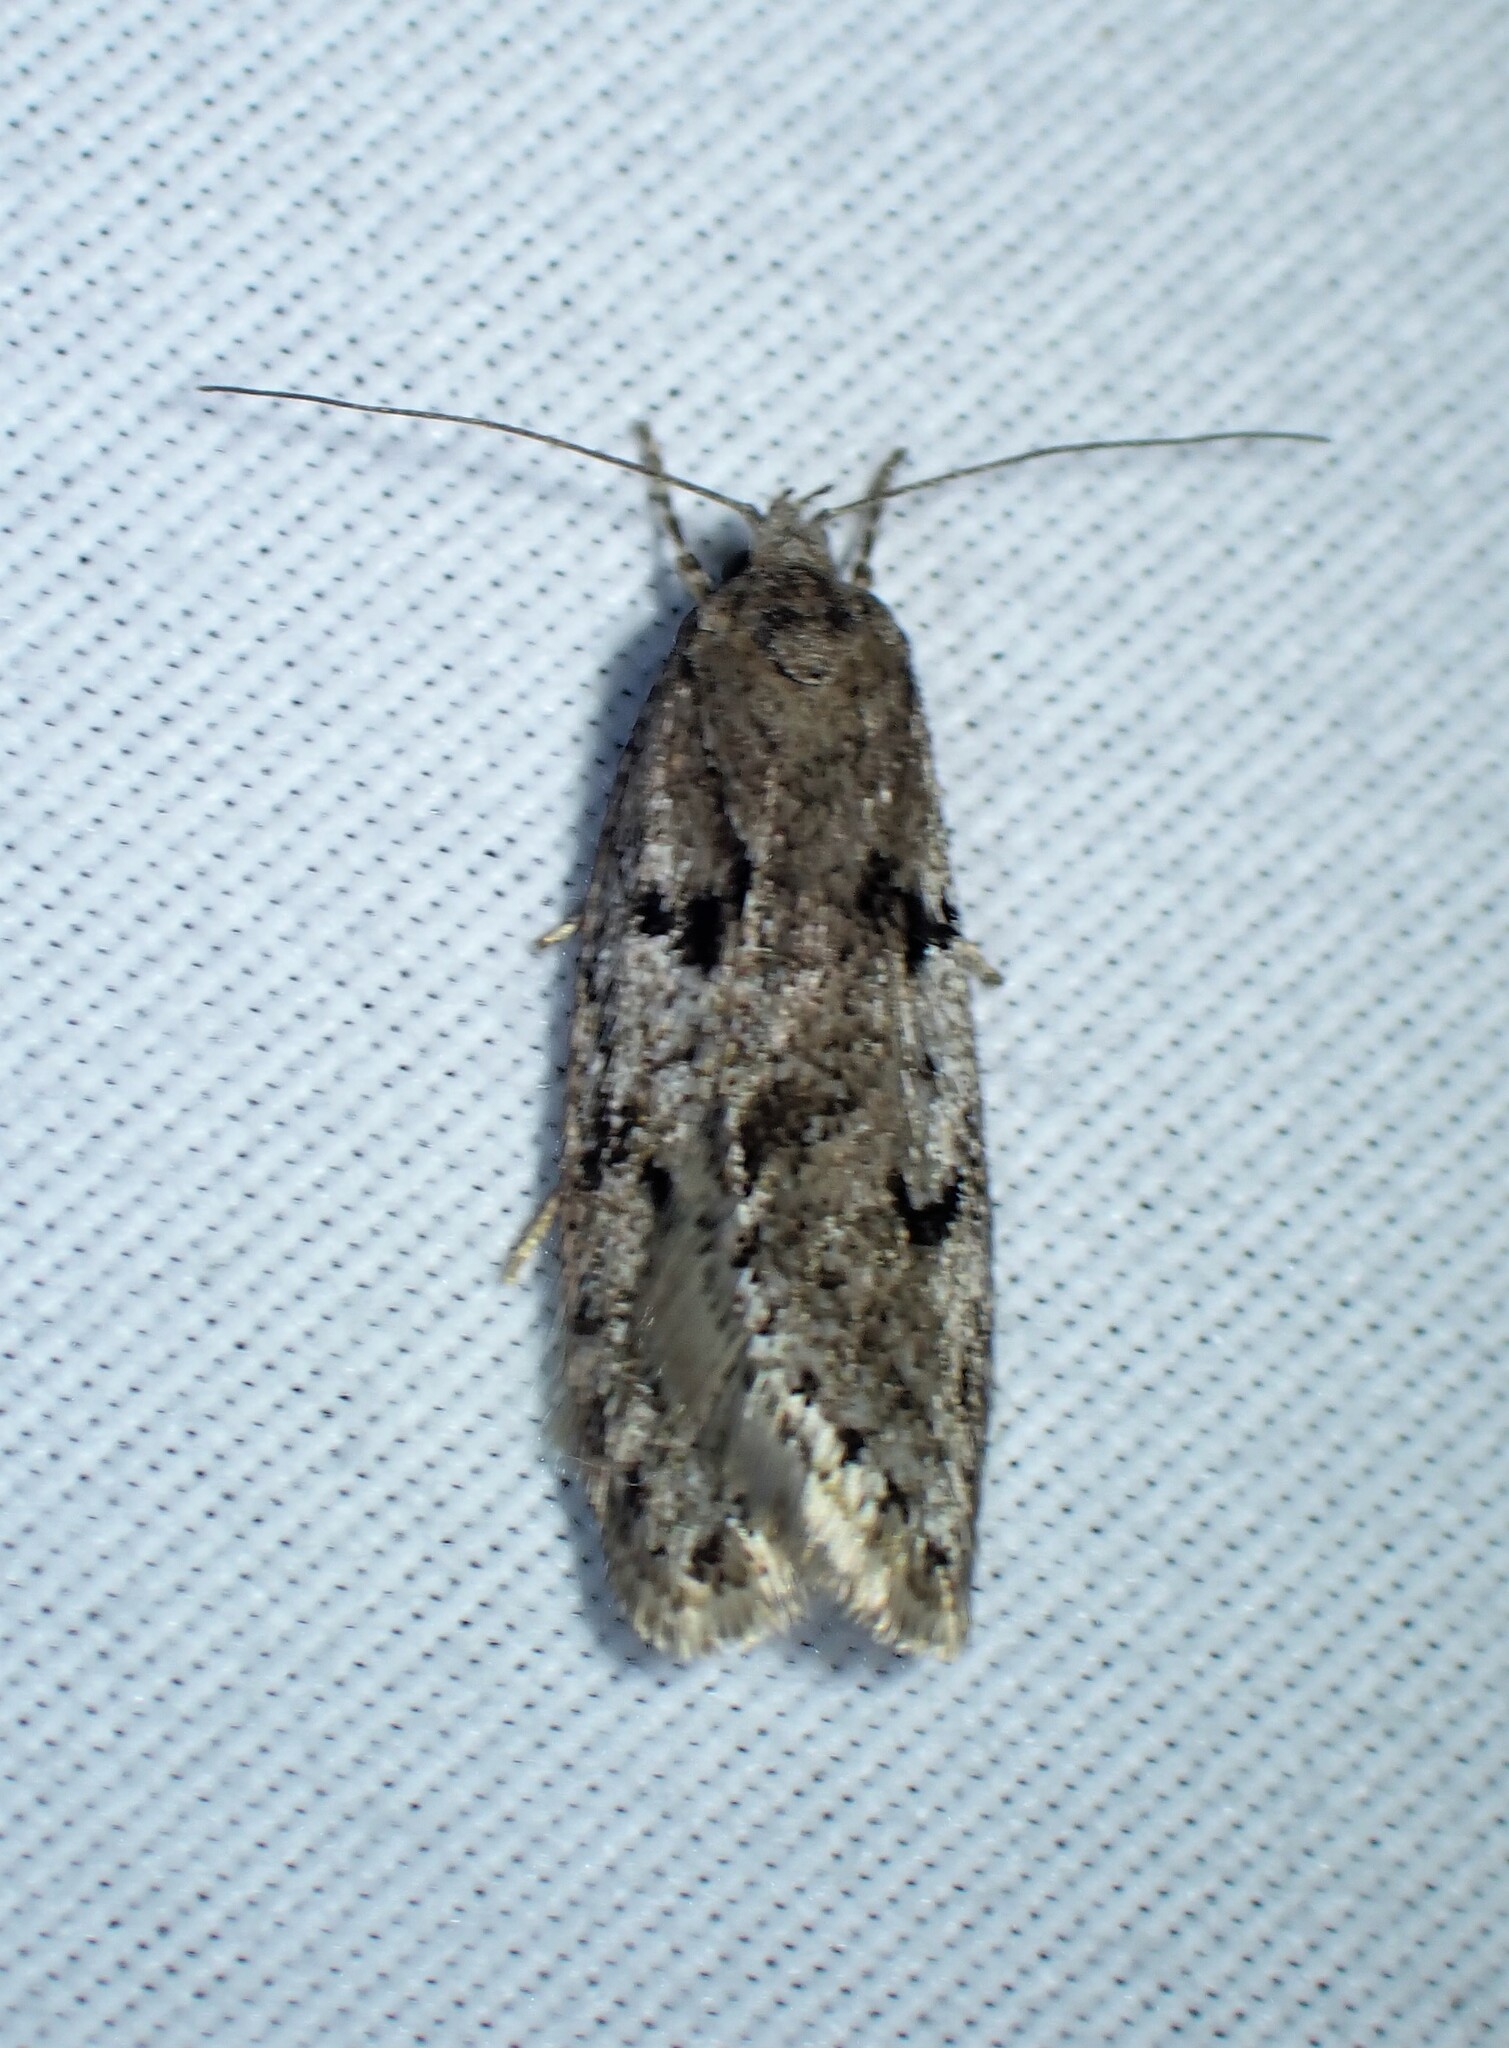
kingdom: Animalia
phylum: Arthropoda
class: Insecta
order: Lepidoptera
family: Depressariidae
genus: Semioscopis
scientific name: Semioscopis megamicrella
